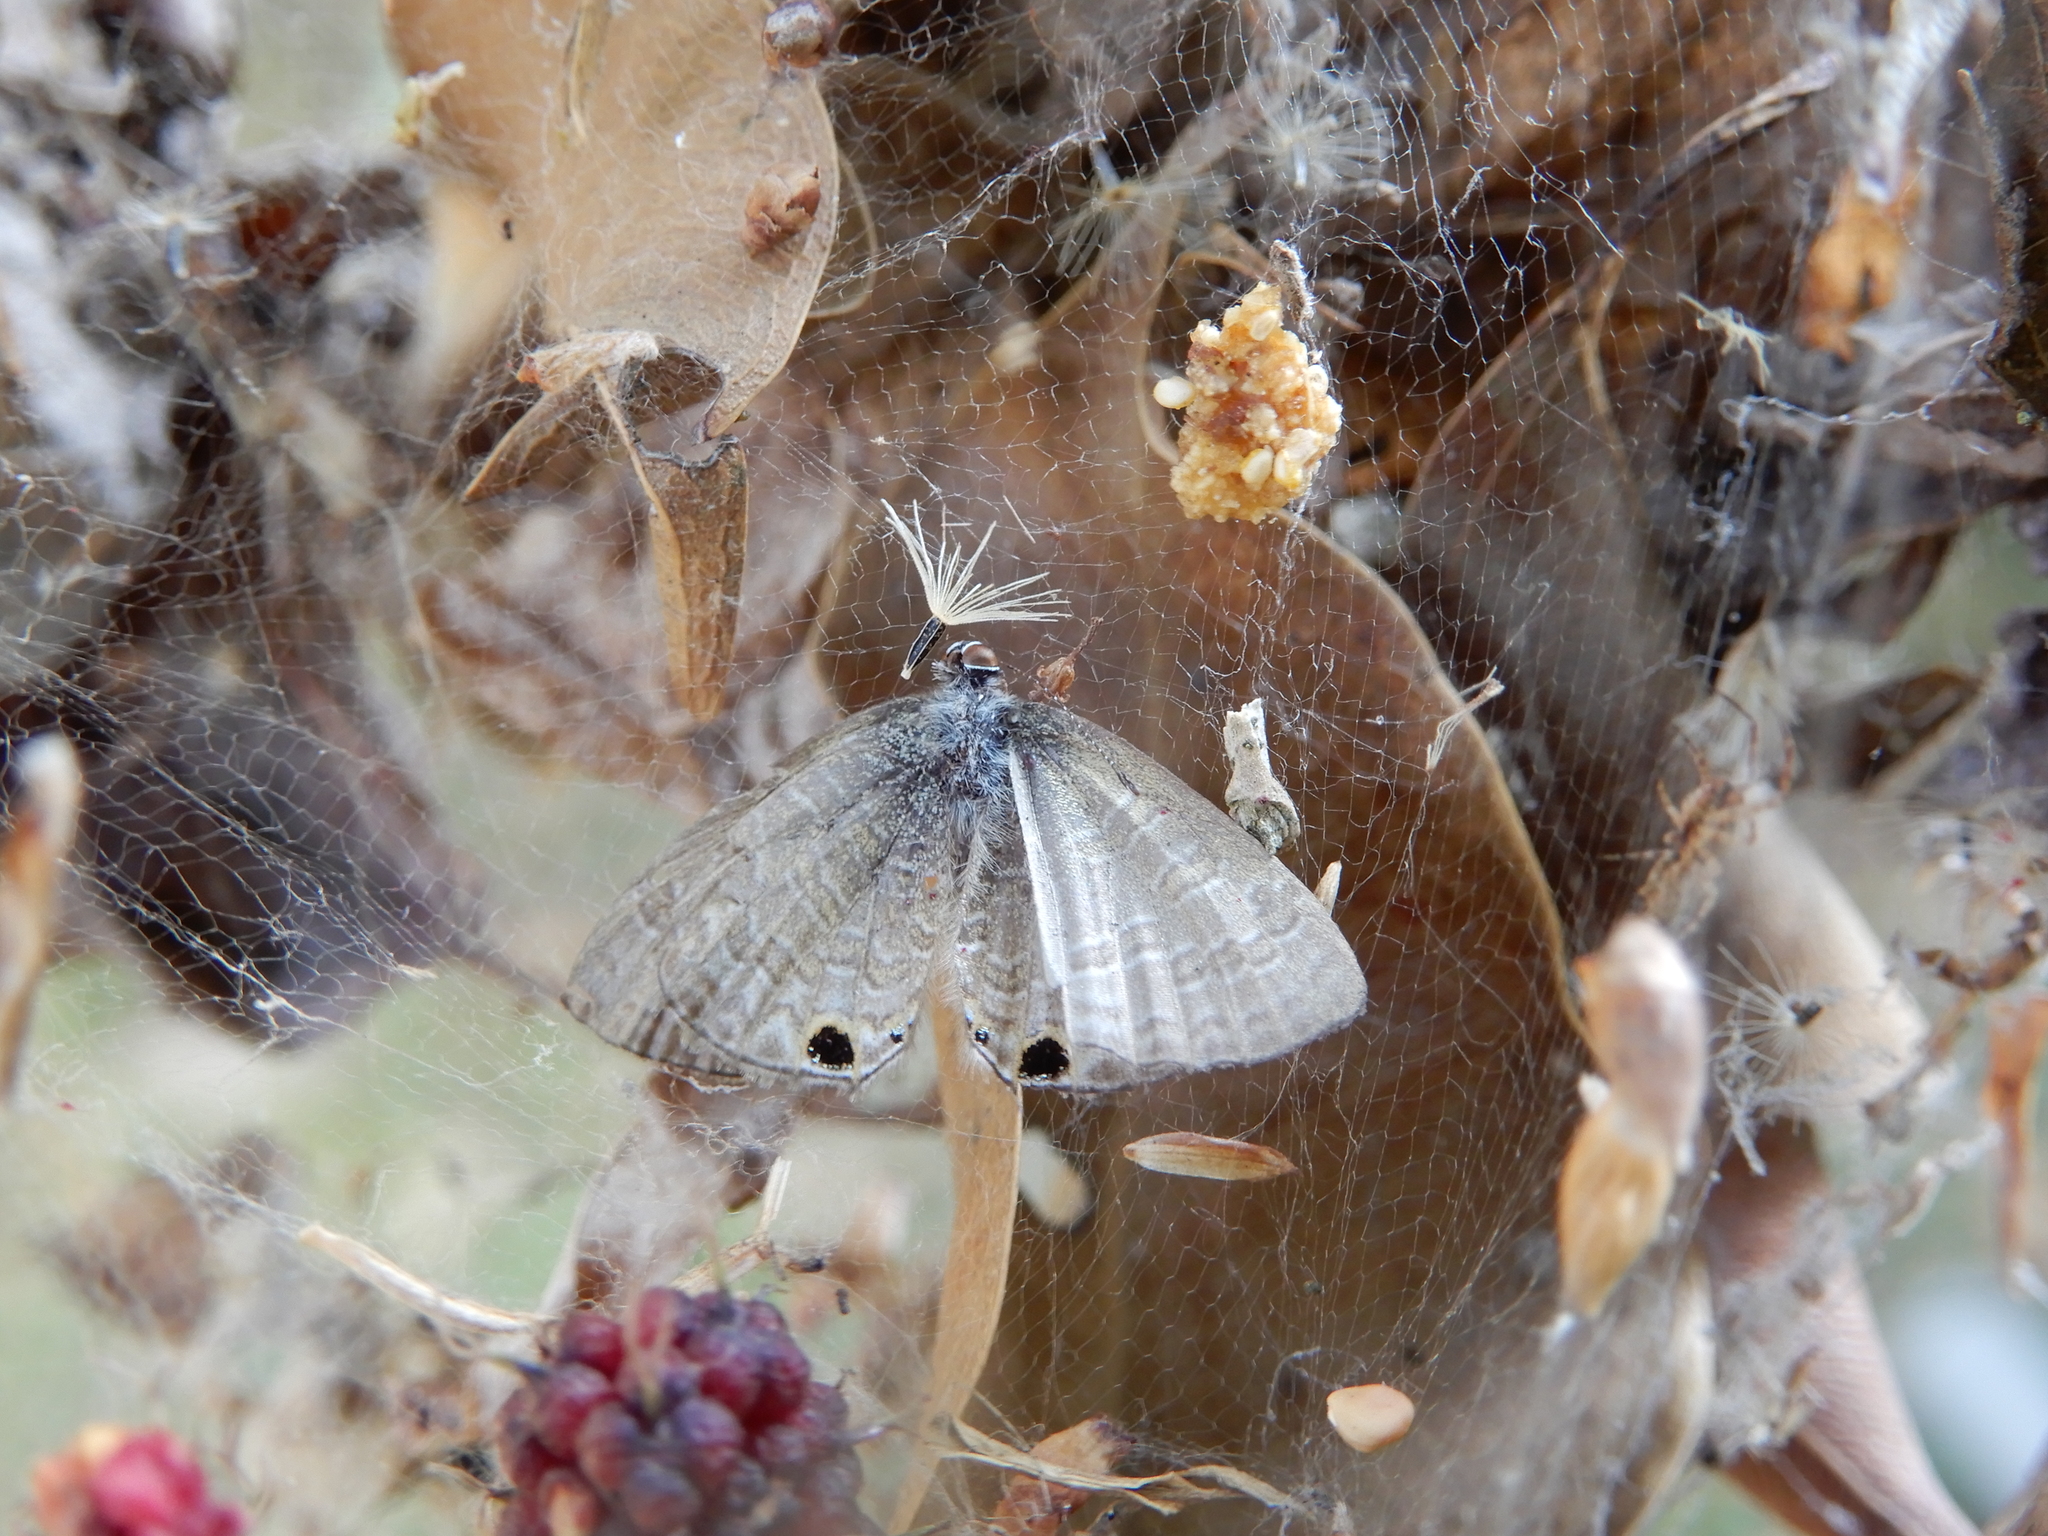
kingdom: Animalia
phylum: Arthropoda
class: Insecta
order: Lepidoptera
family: Lycaenidae
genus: Prosotas
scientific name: Prosotas nora
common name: Common line blue
